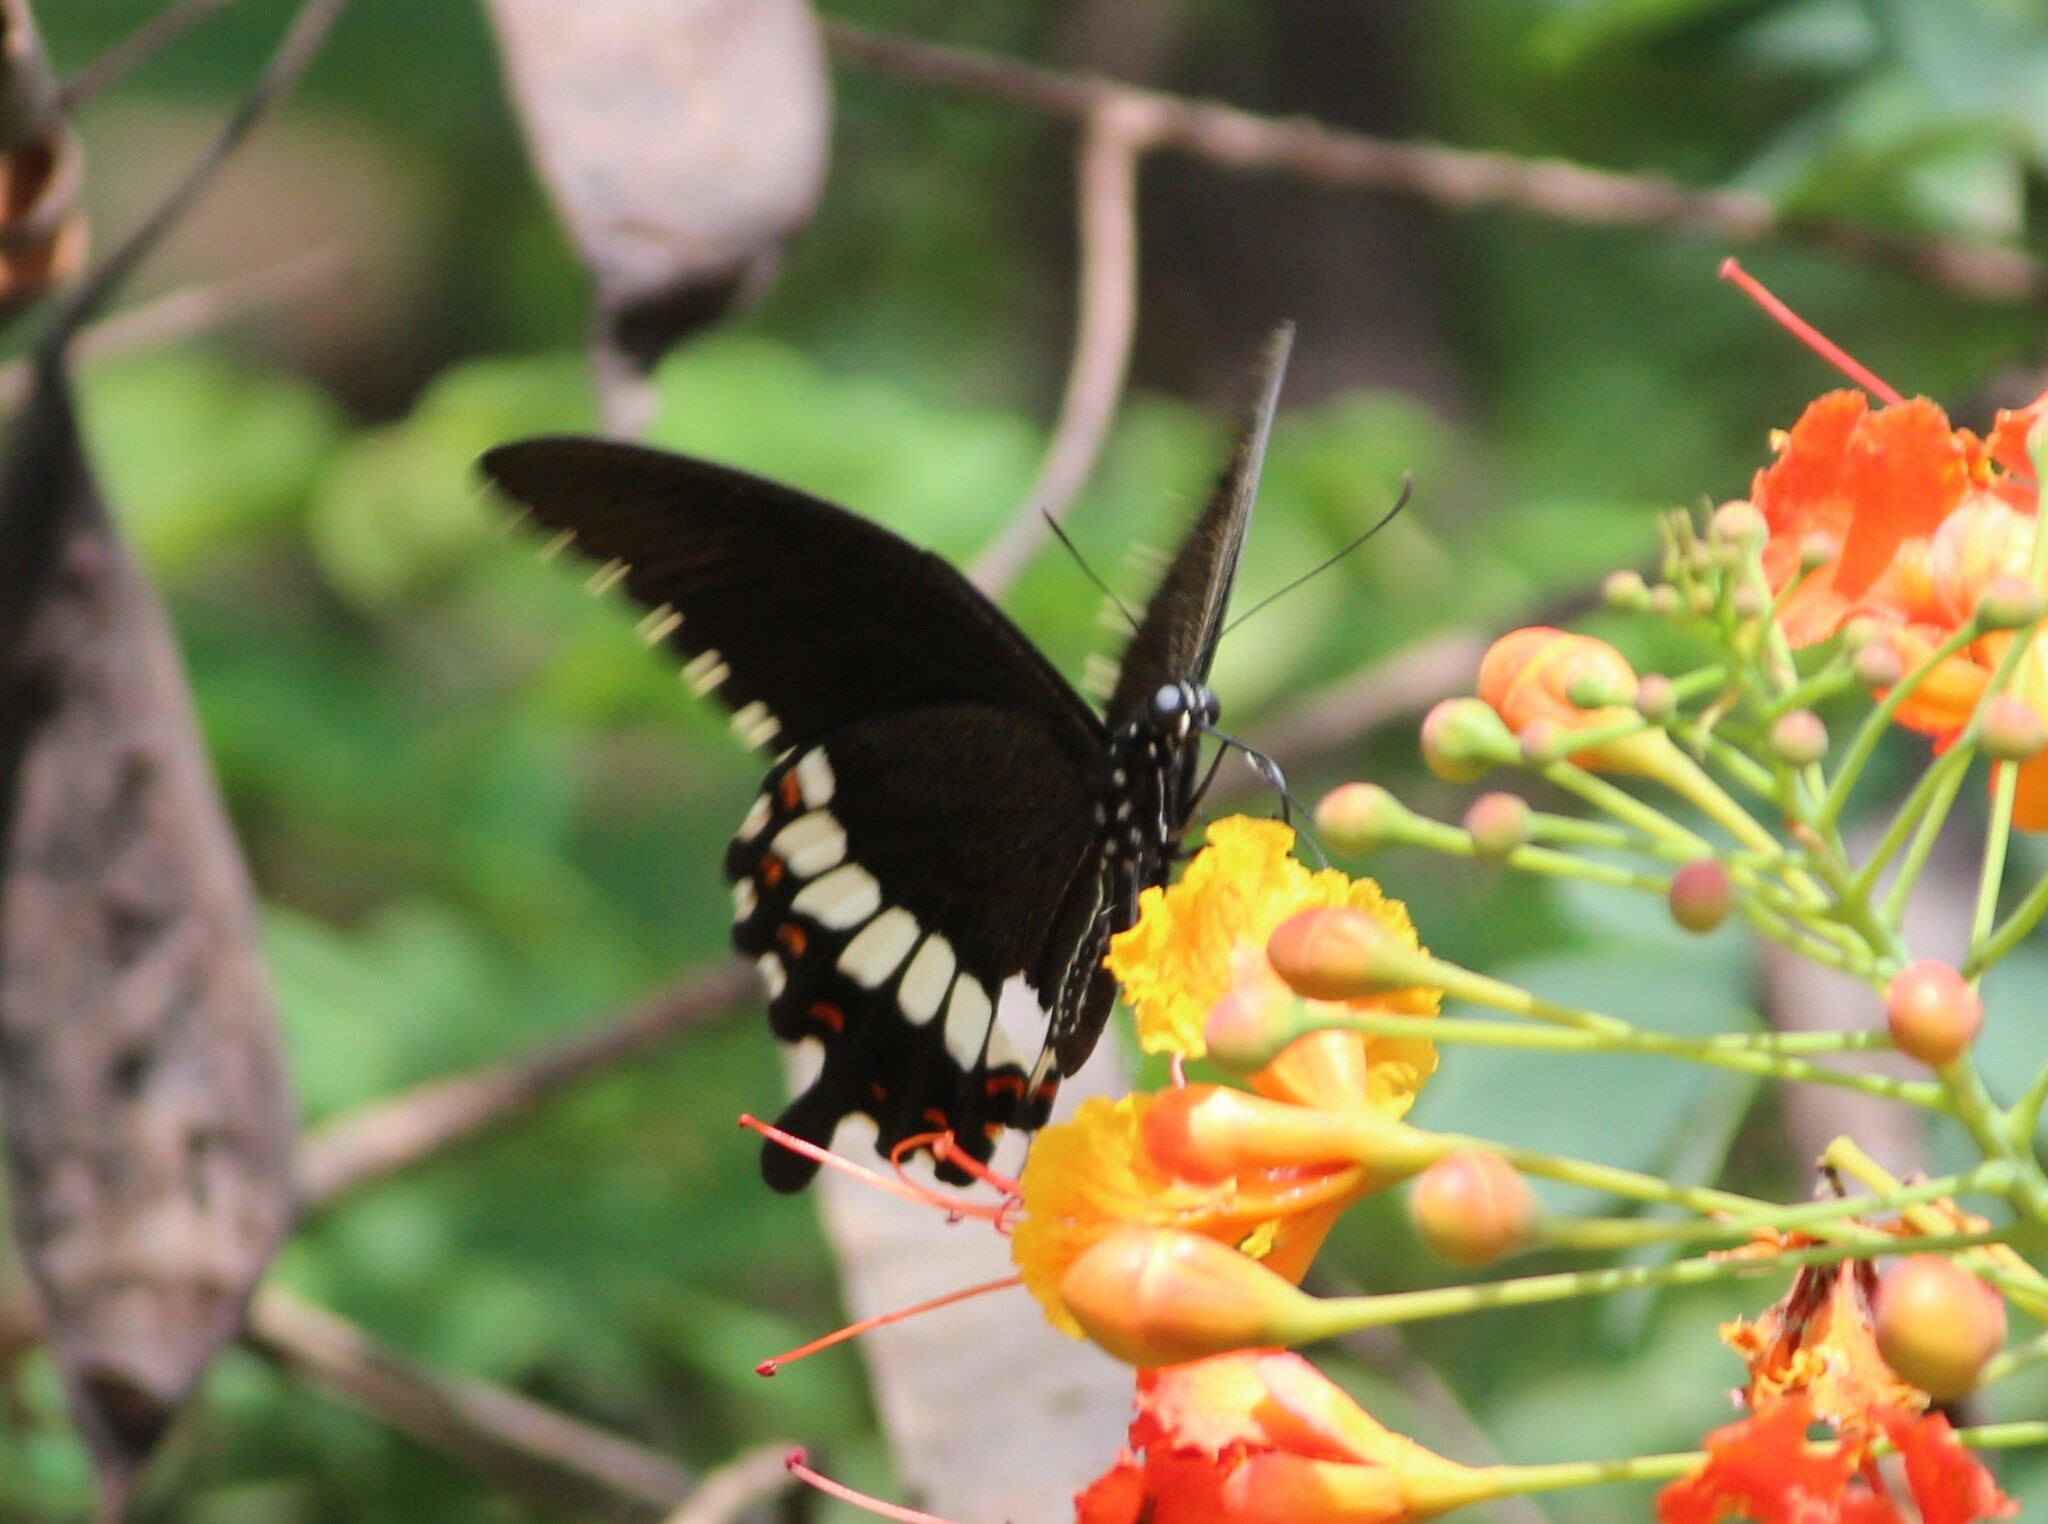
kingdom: Animalia
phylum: Arthropoda
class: Insecta
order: Lepidoptera
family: Papilionidae
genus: Papilio
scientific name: Papilio polytes
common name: Common mormon
